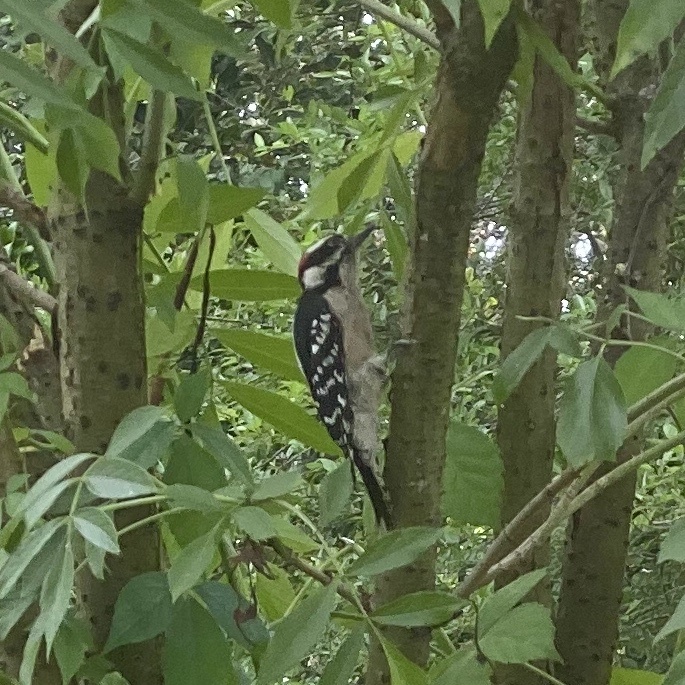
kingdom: Animalia
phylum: Chordata
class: Aves
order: Piciformes
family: Picidae
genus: Dryobates
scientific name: Dryobates pubescens
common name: Downy woodpecker
